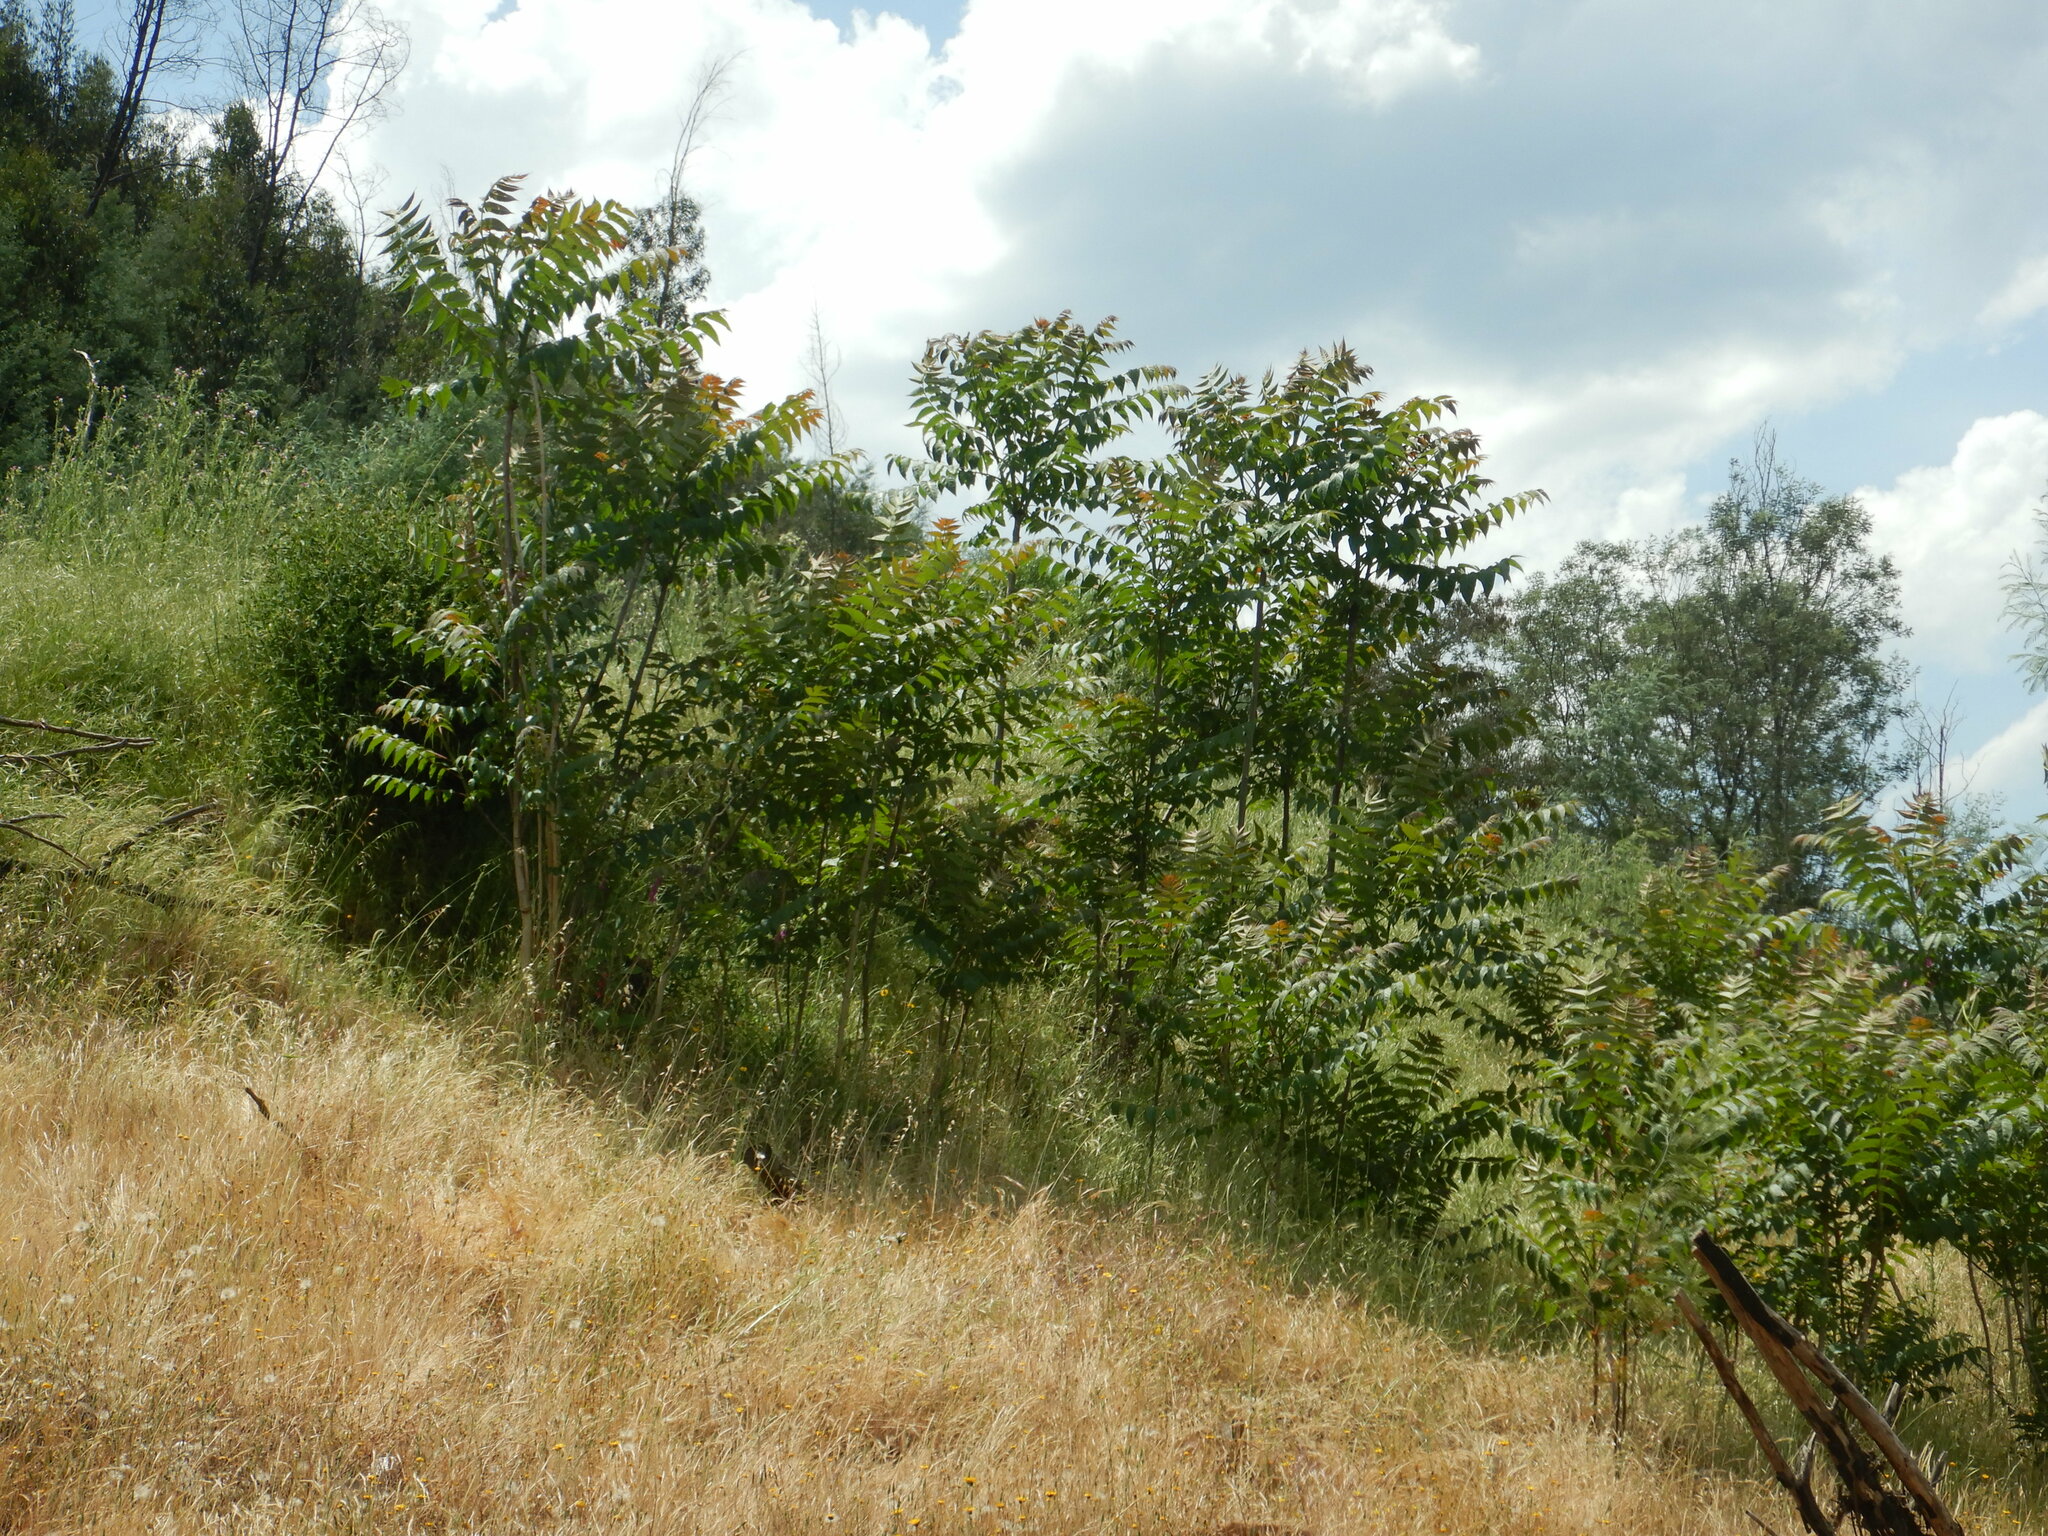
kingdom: Plantae
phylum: Tracheophyta
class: Magnoliopsida
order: Sapindales
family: Simaroubaceae
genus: Ailanthus
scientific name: Ailanthus altissima
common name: Tree-of-heaven
